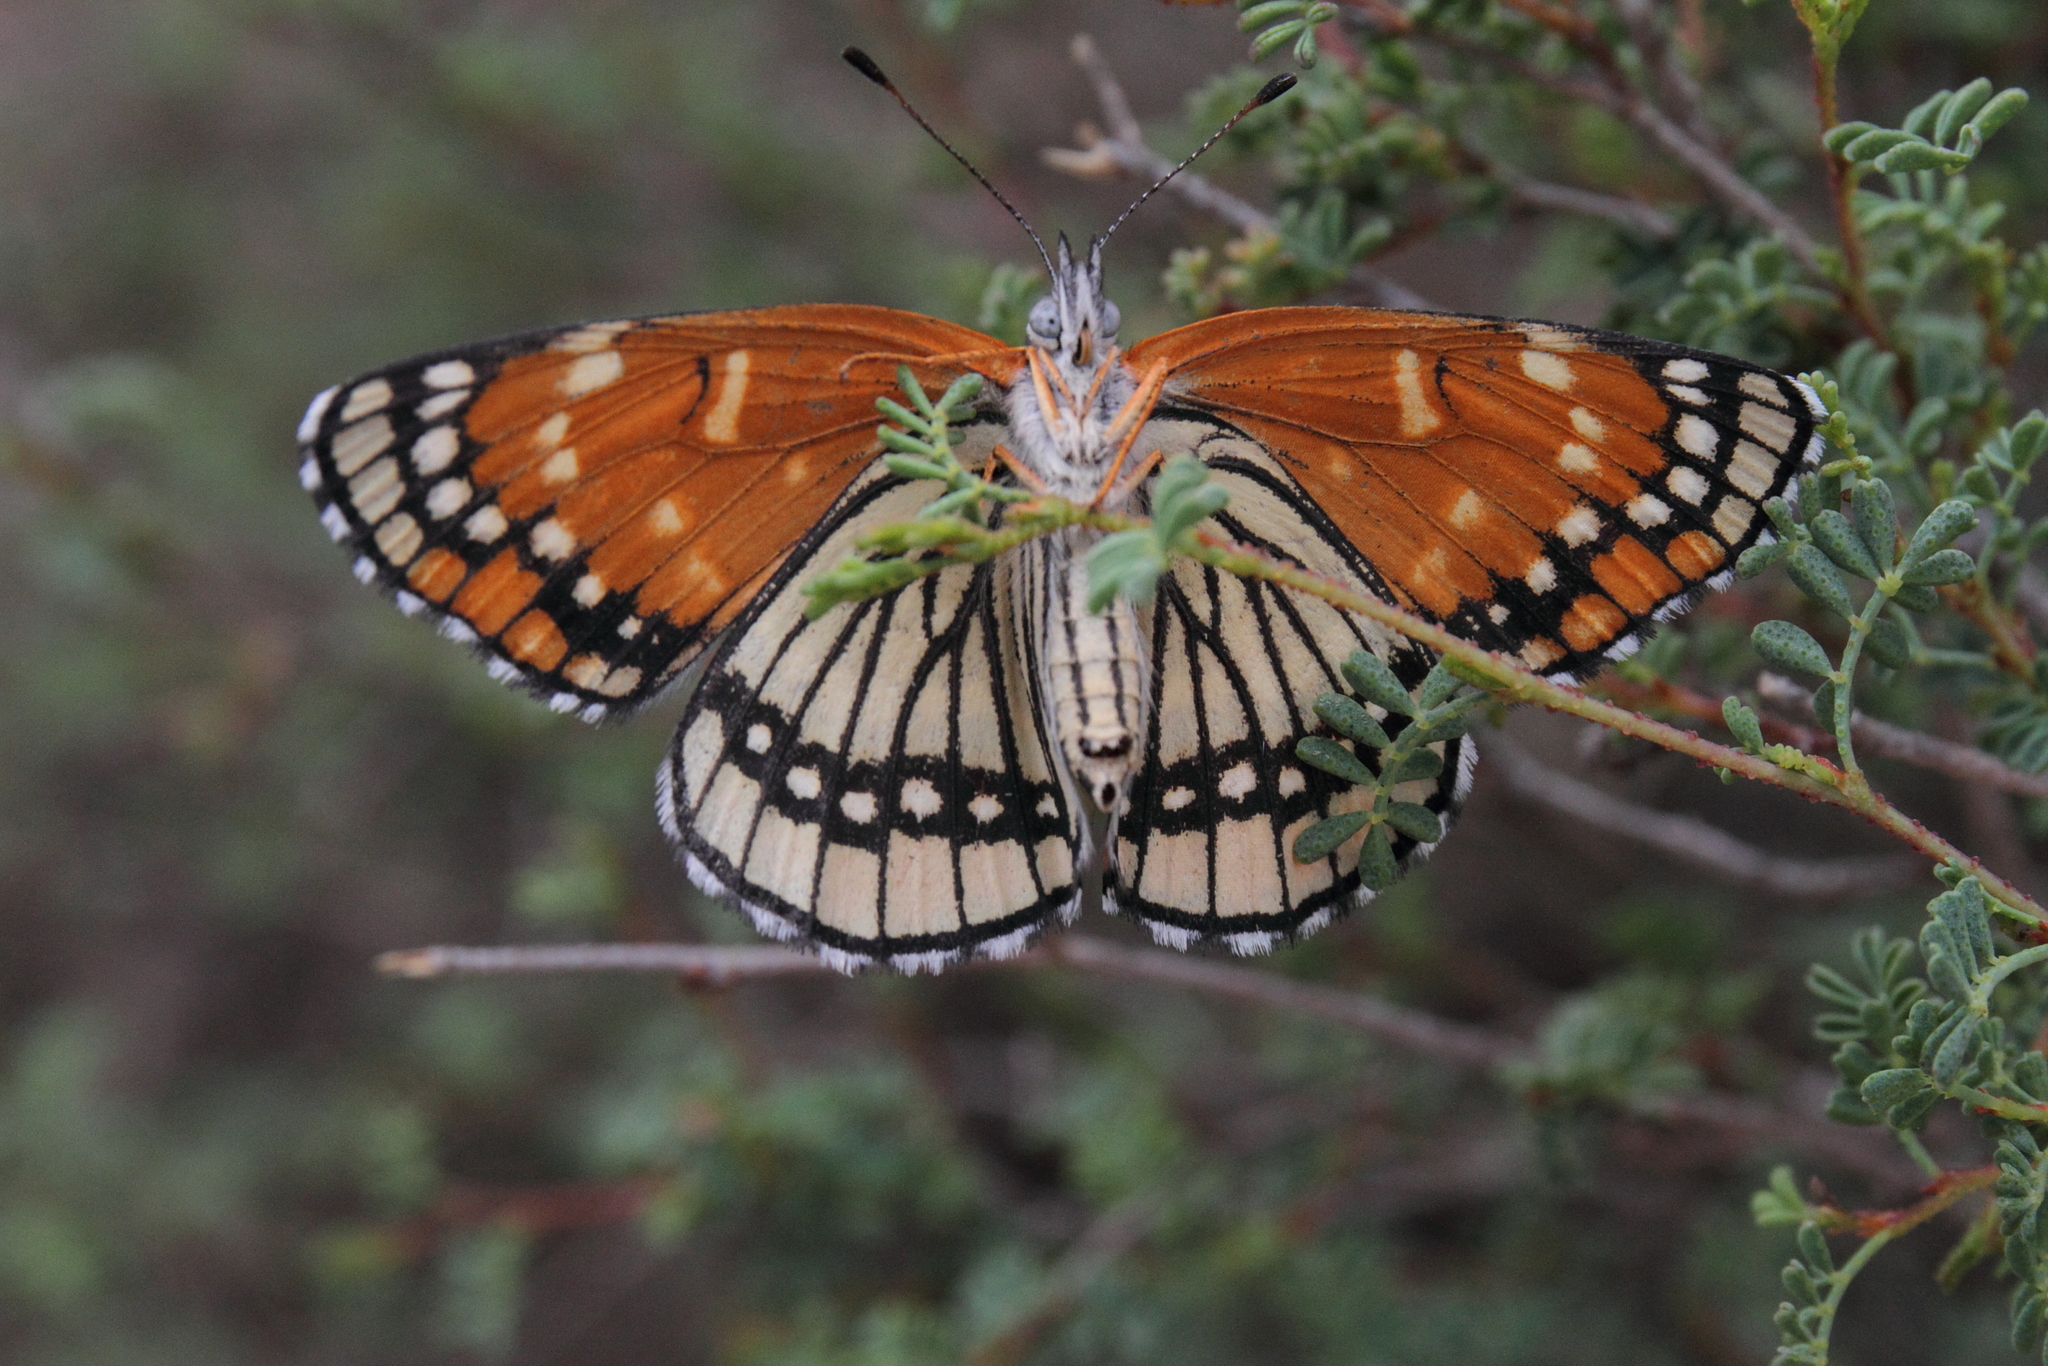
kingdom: Animalia
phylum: Arthropoda
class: Insecta
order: Lepidoptera
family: Nymphalidae
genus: Thessalia
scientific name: Thessalia leanira
